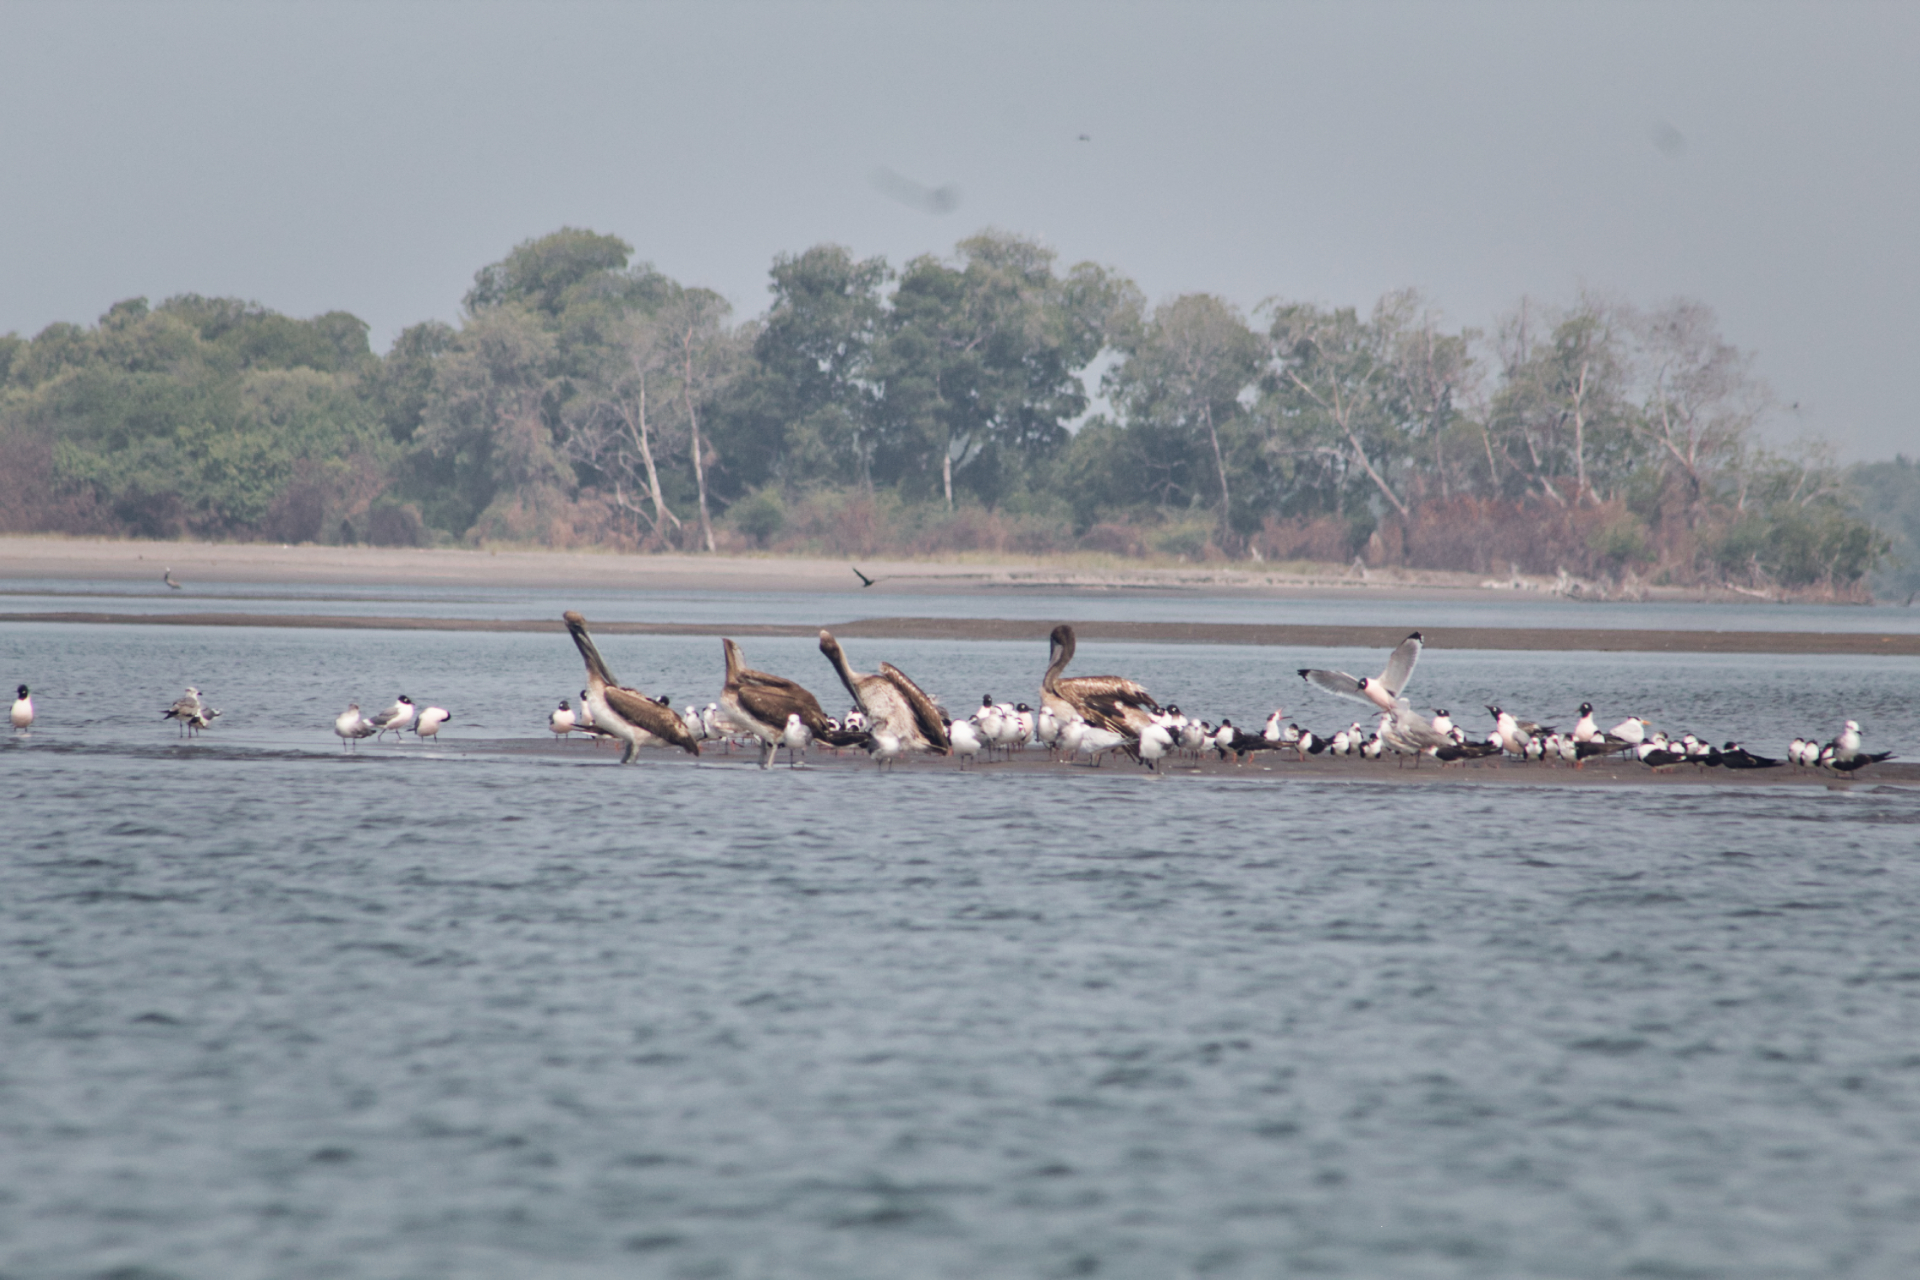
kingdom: Animalia
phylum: Chordata
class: Aves
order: Charadriiformes
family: Laridae
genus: Leucophaeus
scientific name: Leucophaeus pipixcan
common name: Franklin's gull
